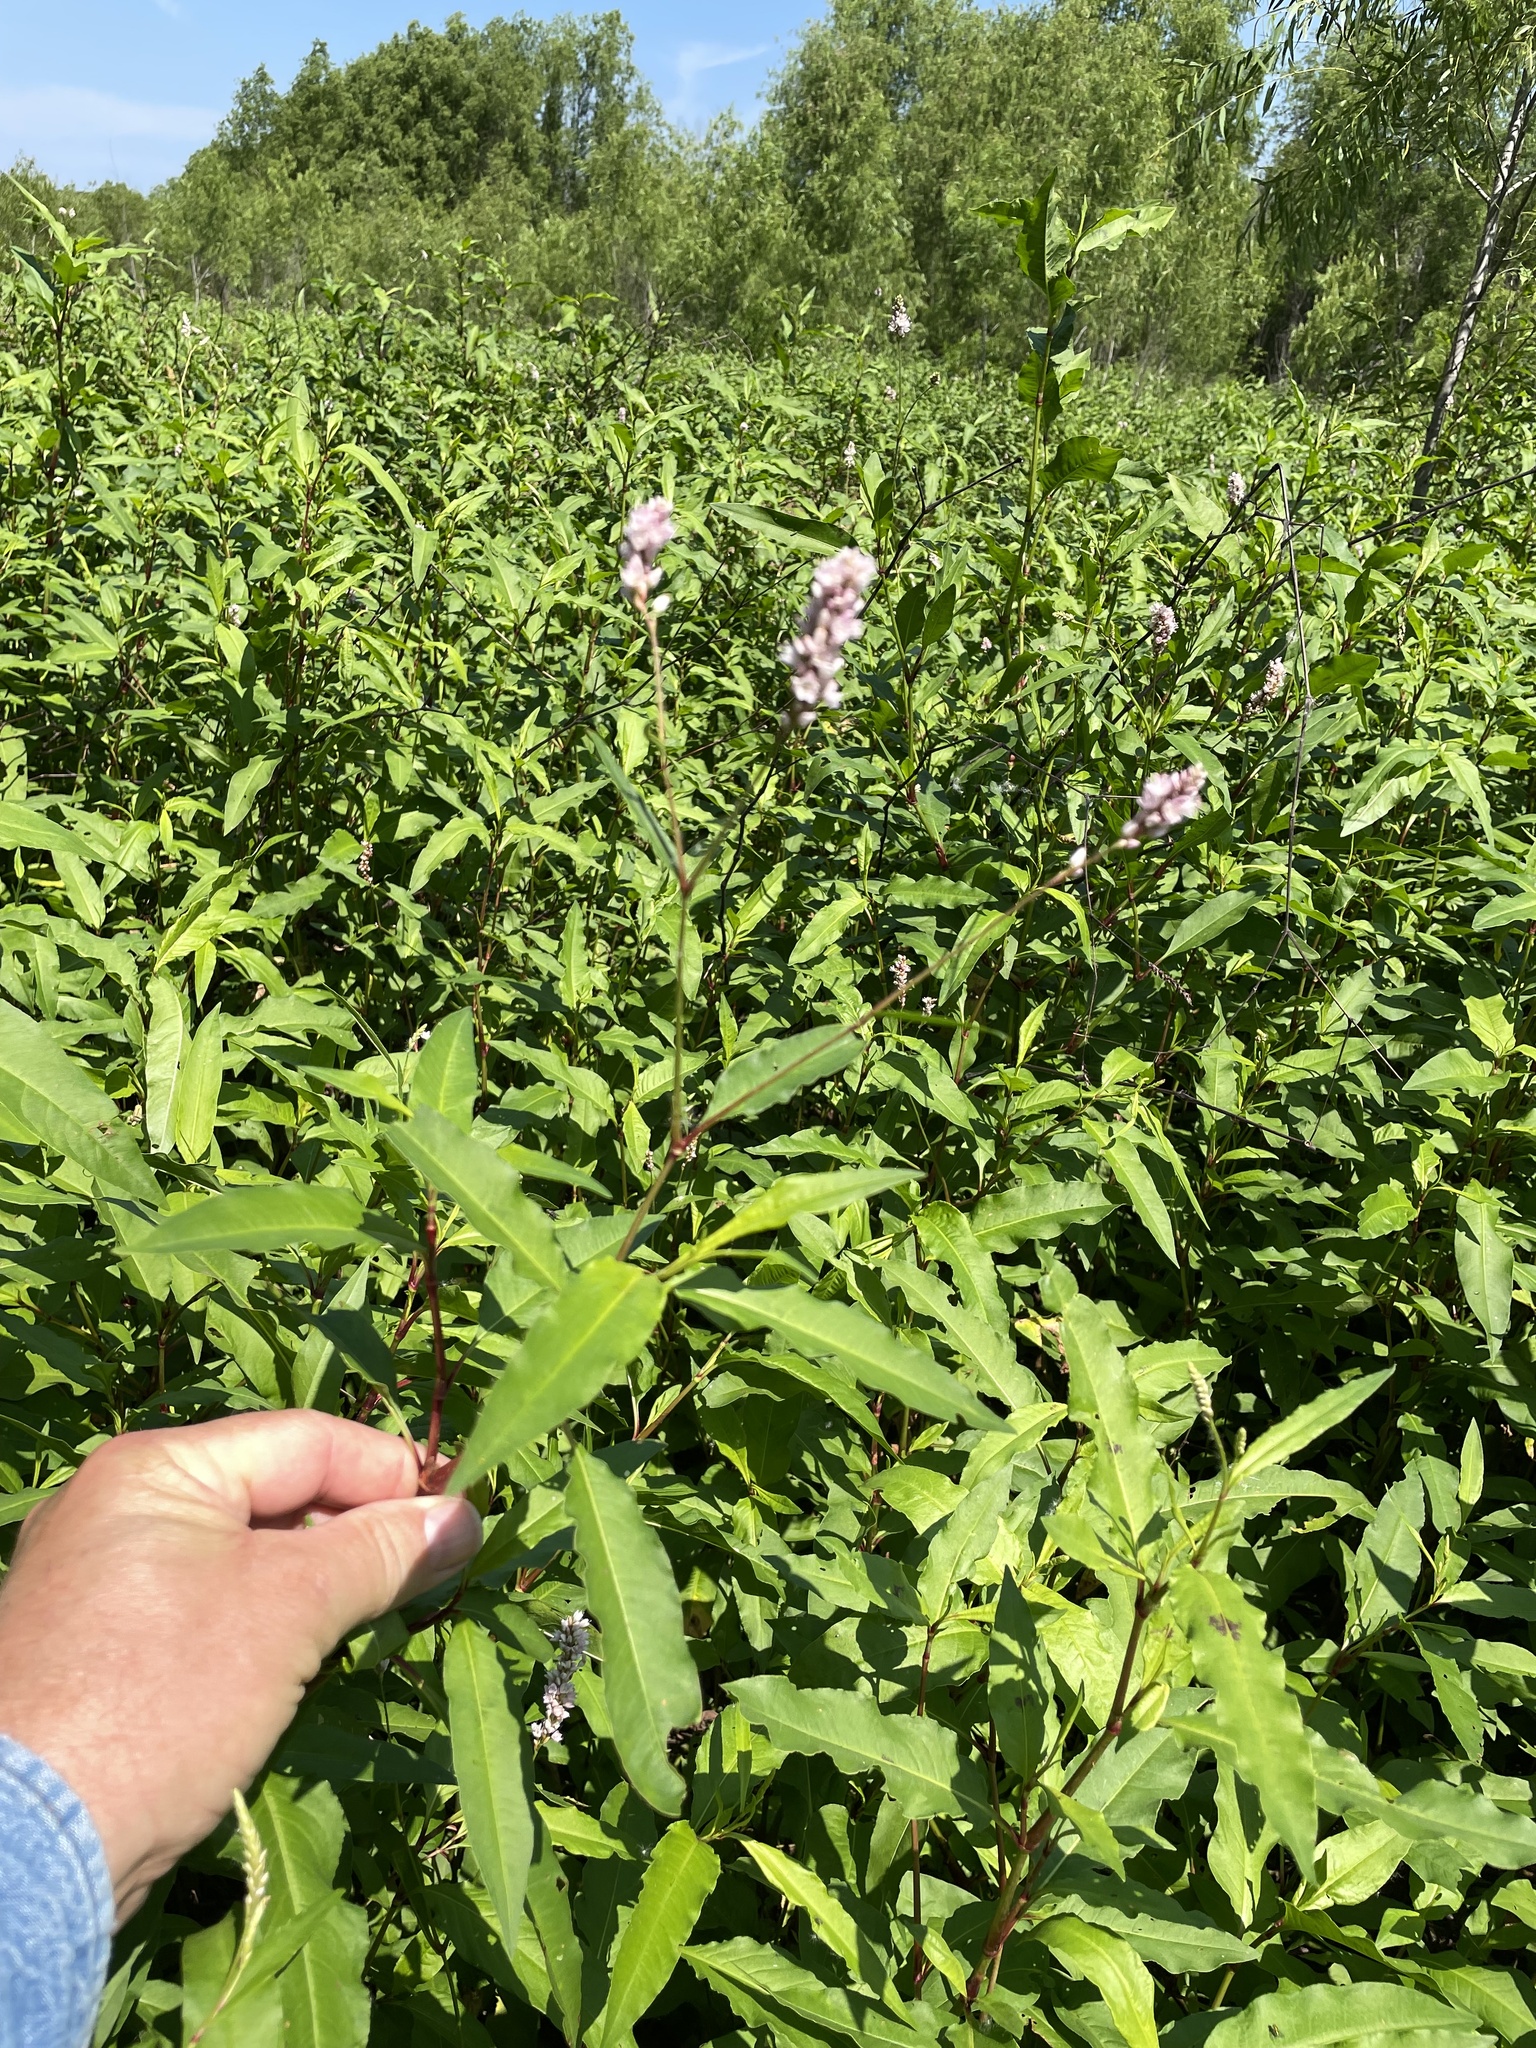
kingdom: Plantae
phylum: Tracheophyta
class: Magnoliopsida
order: Caryophyllales
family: Polygonaceae
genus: Persicaria
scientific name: Persicaria bicornis
